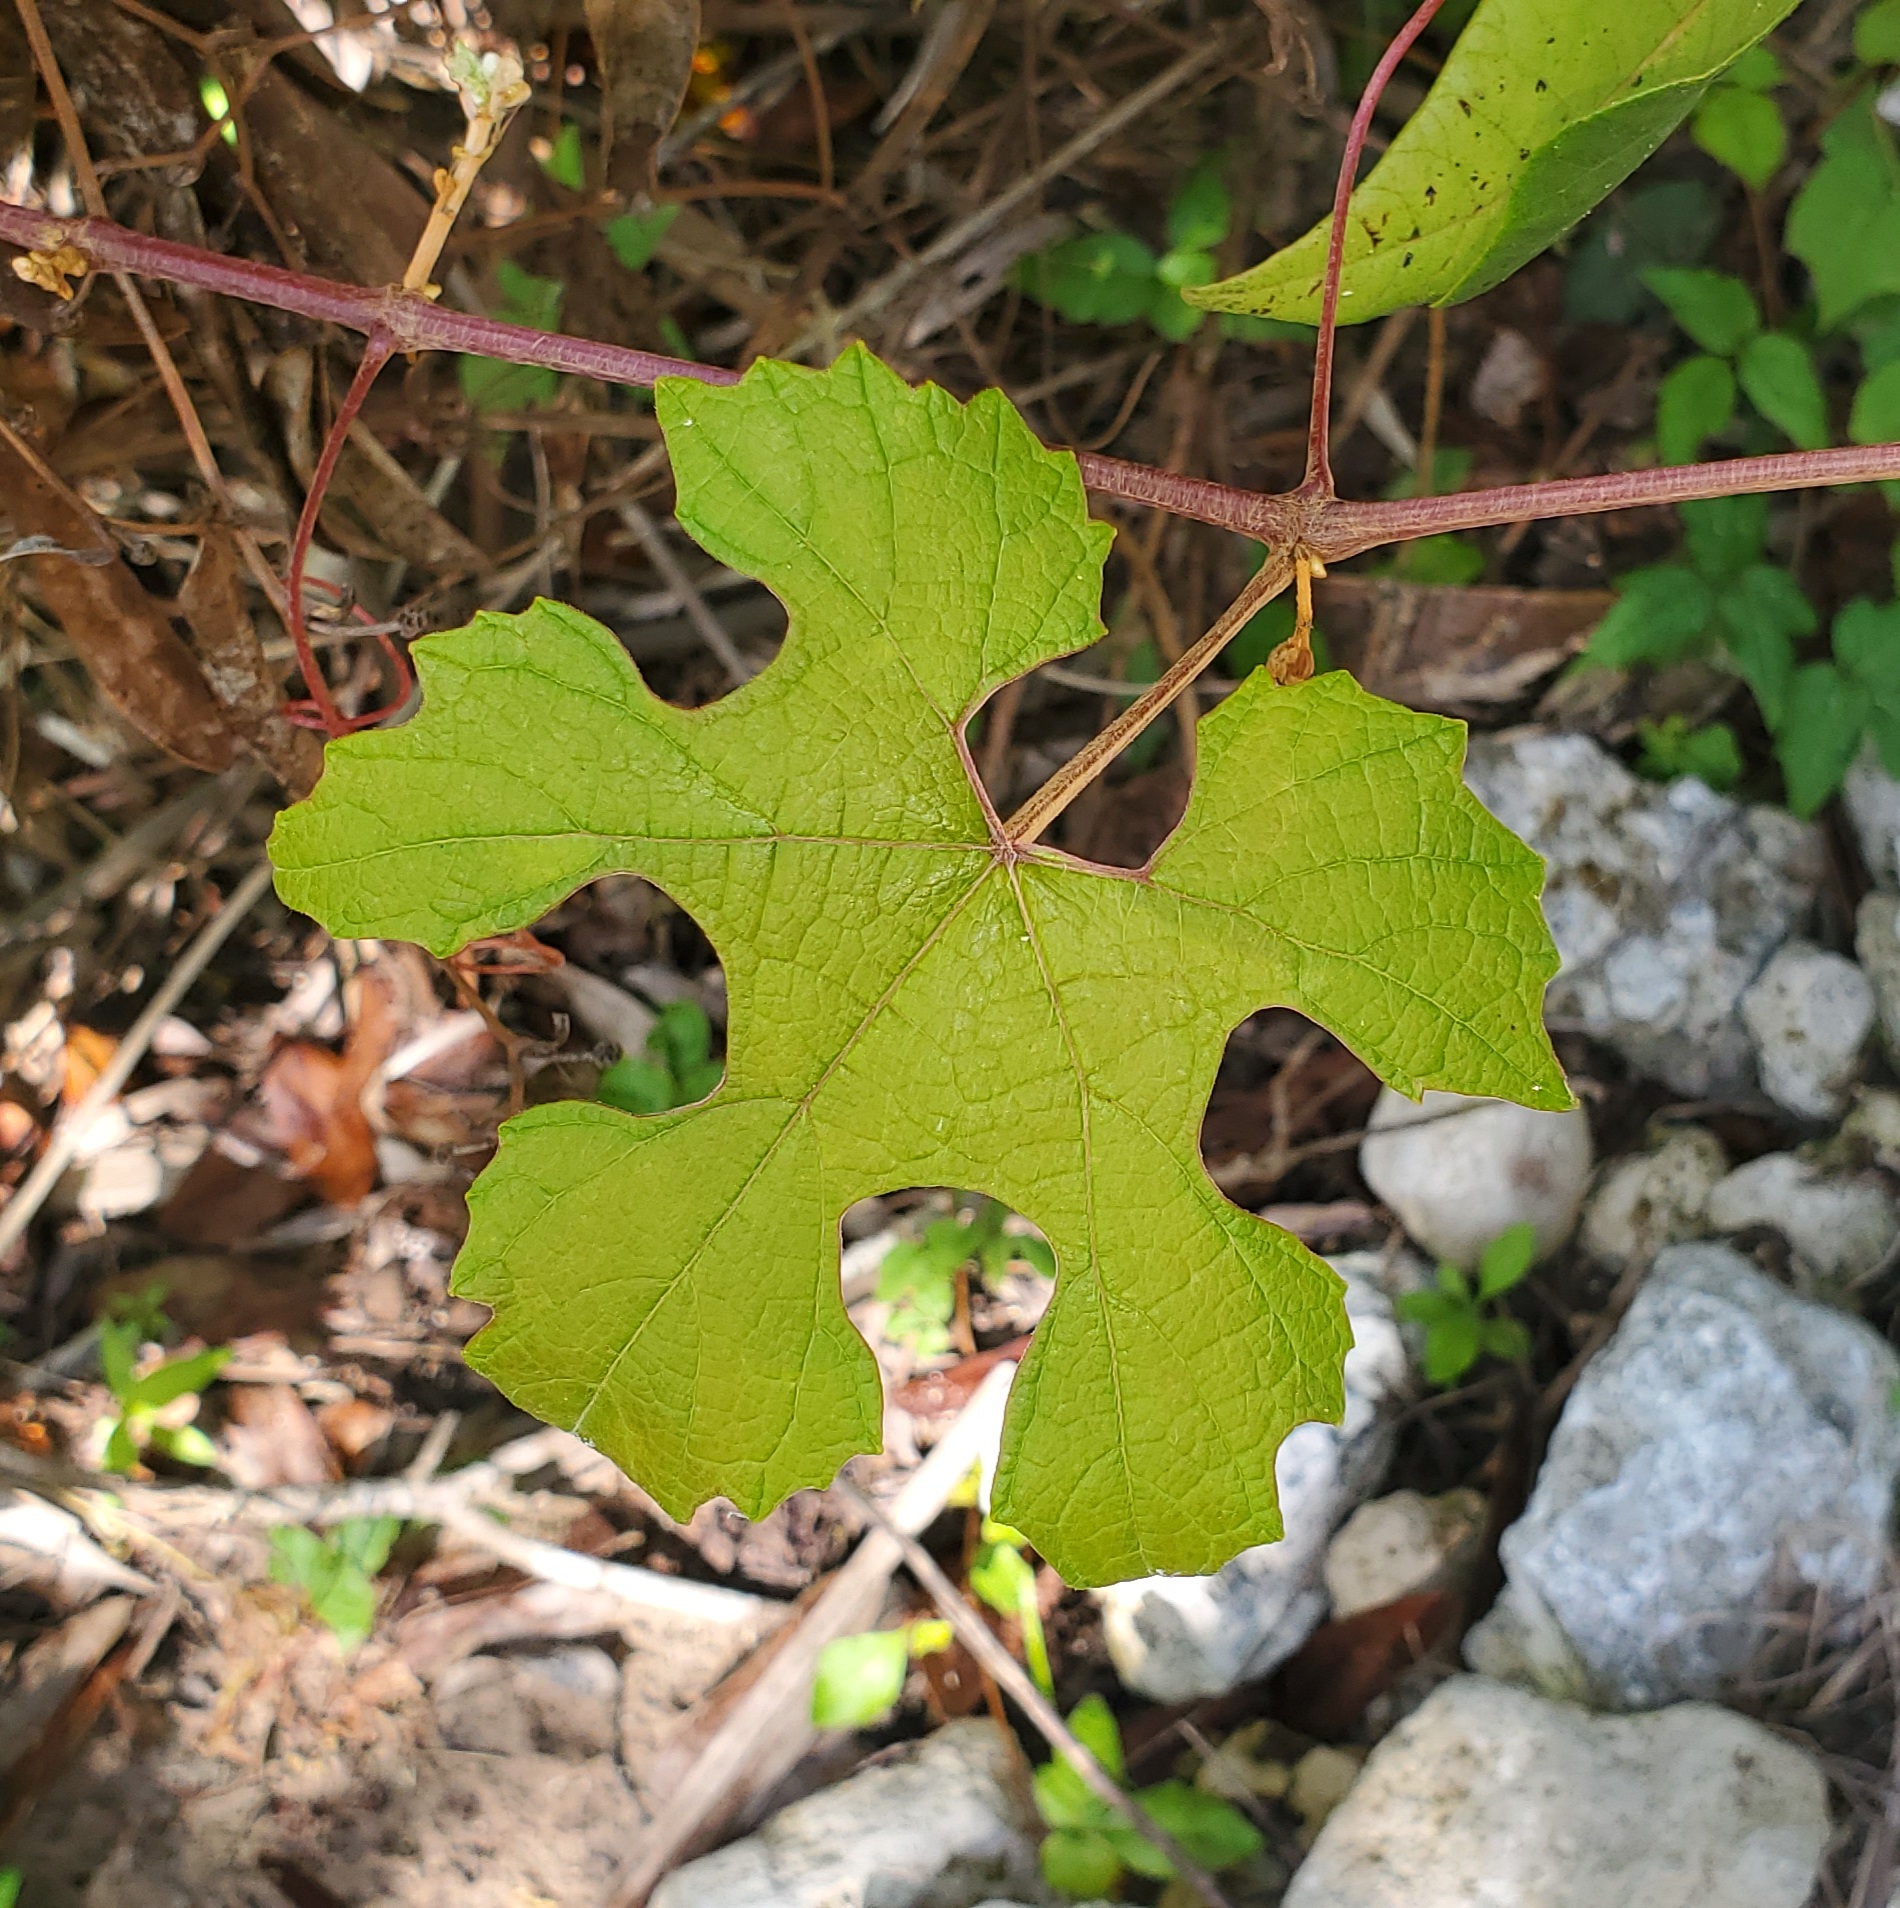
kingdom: Plantae
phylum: Tracheophyta
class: Magnoliopsida
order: Vitales
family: Vitaceae
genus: Vitis
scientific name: Vitis aestivalis
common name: Pigeon grape
